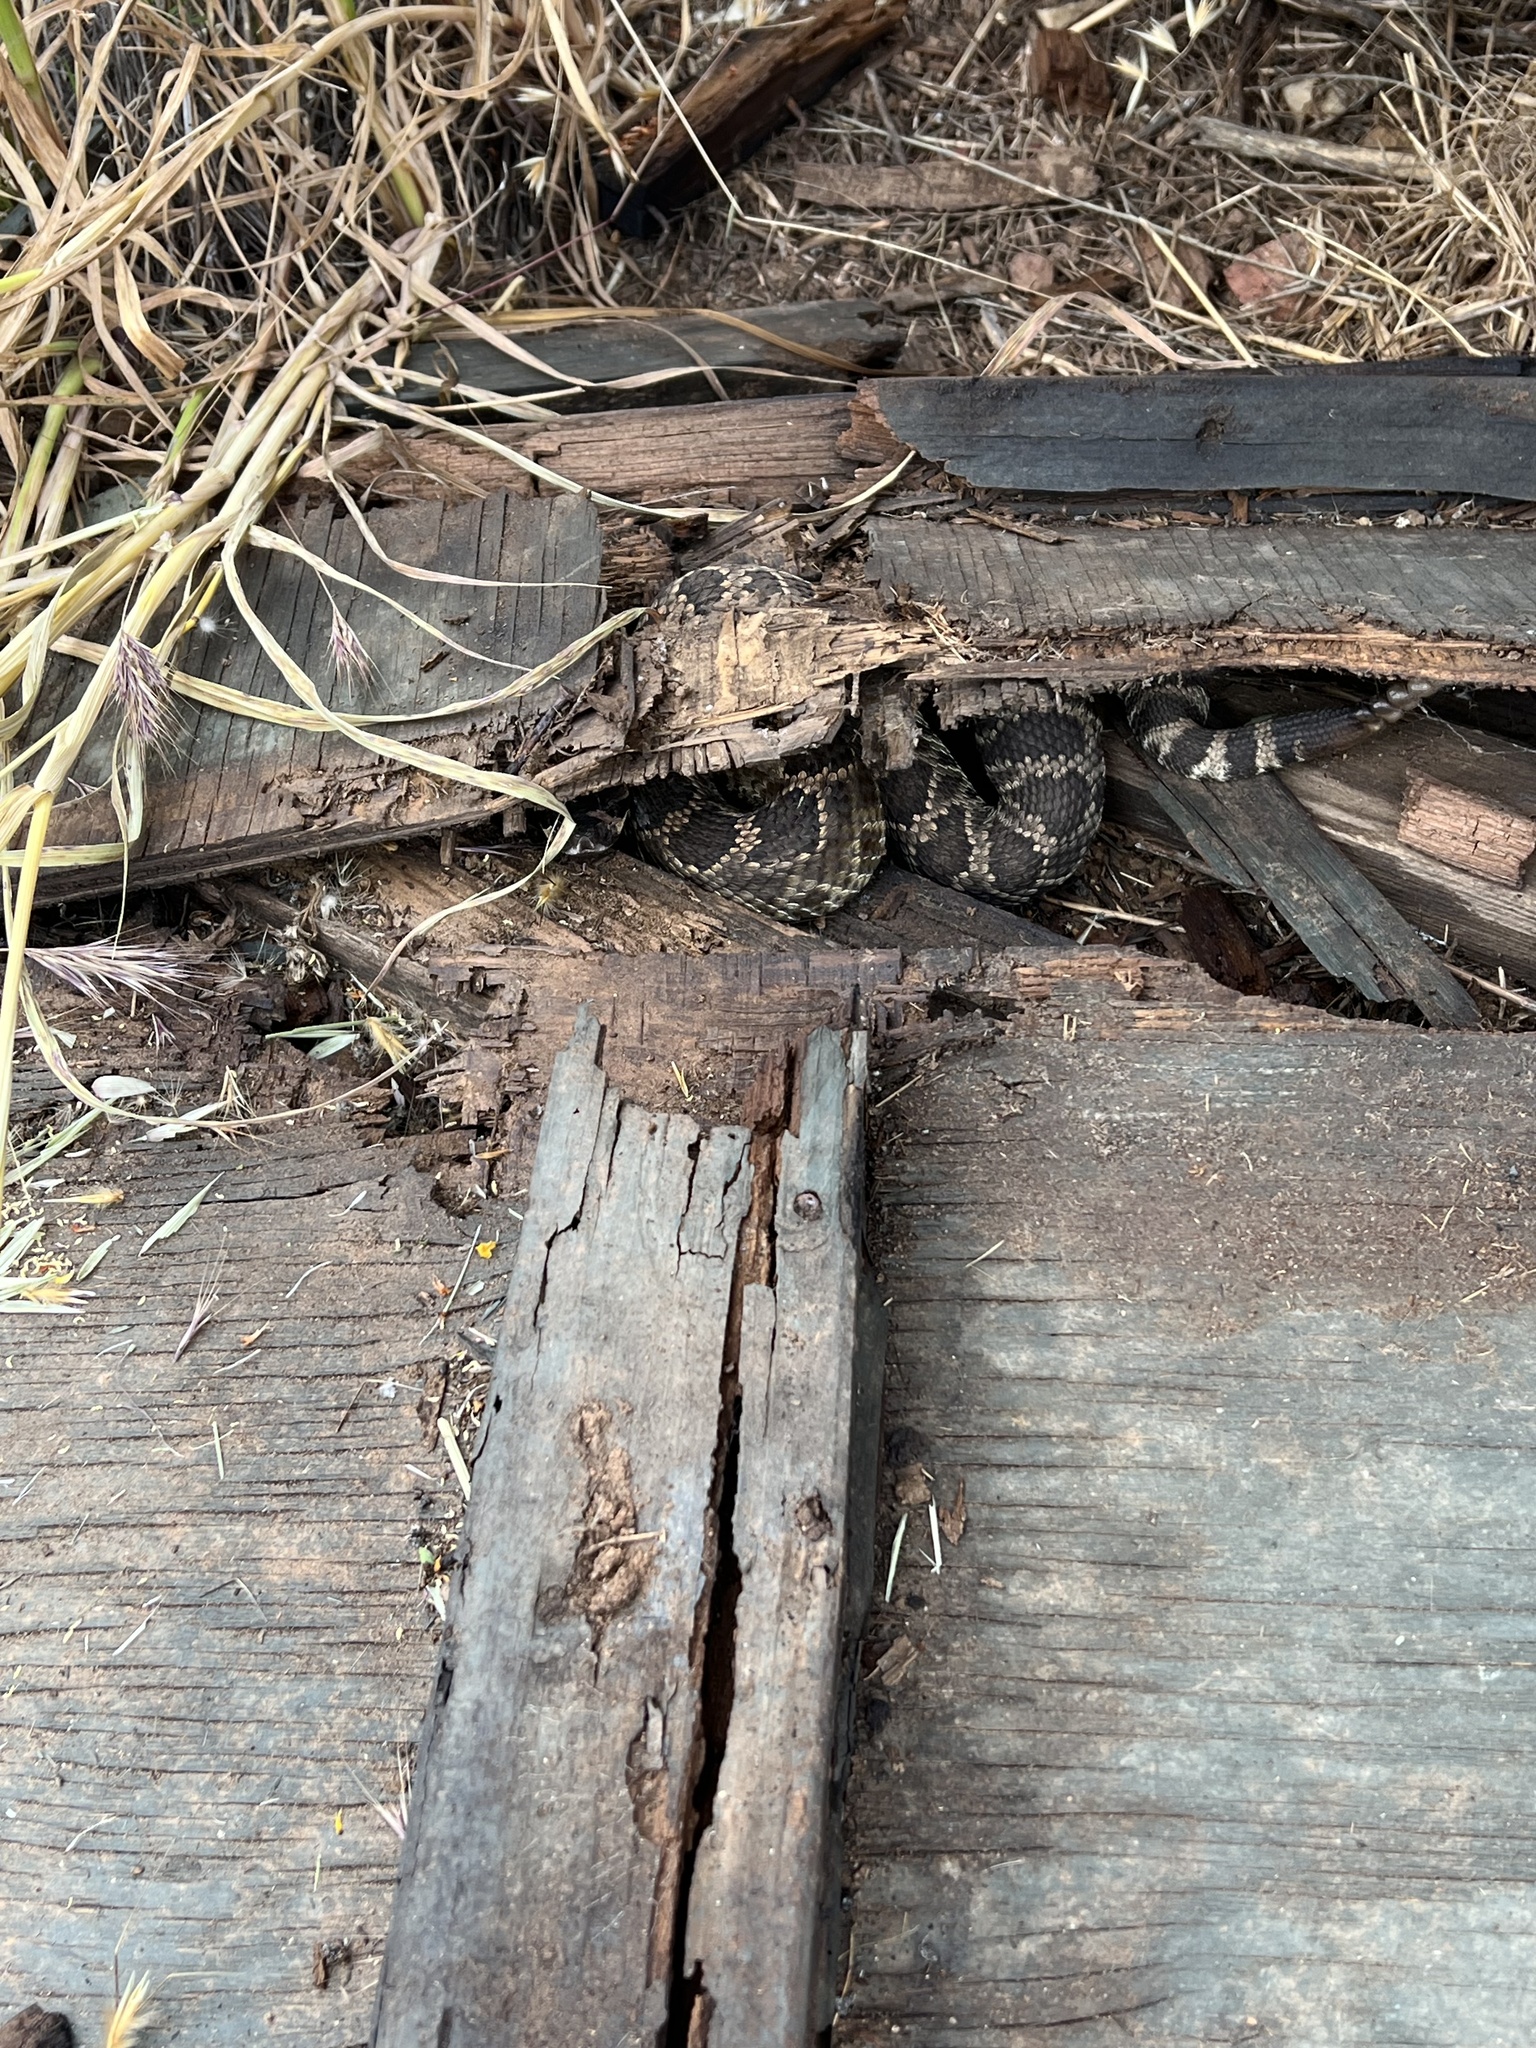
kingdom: Animalia
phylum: Chordata
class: Squamata
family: Viperidae
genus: Crotalus
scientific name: Crotalus oreganus
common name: Abyssus
